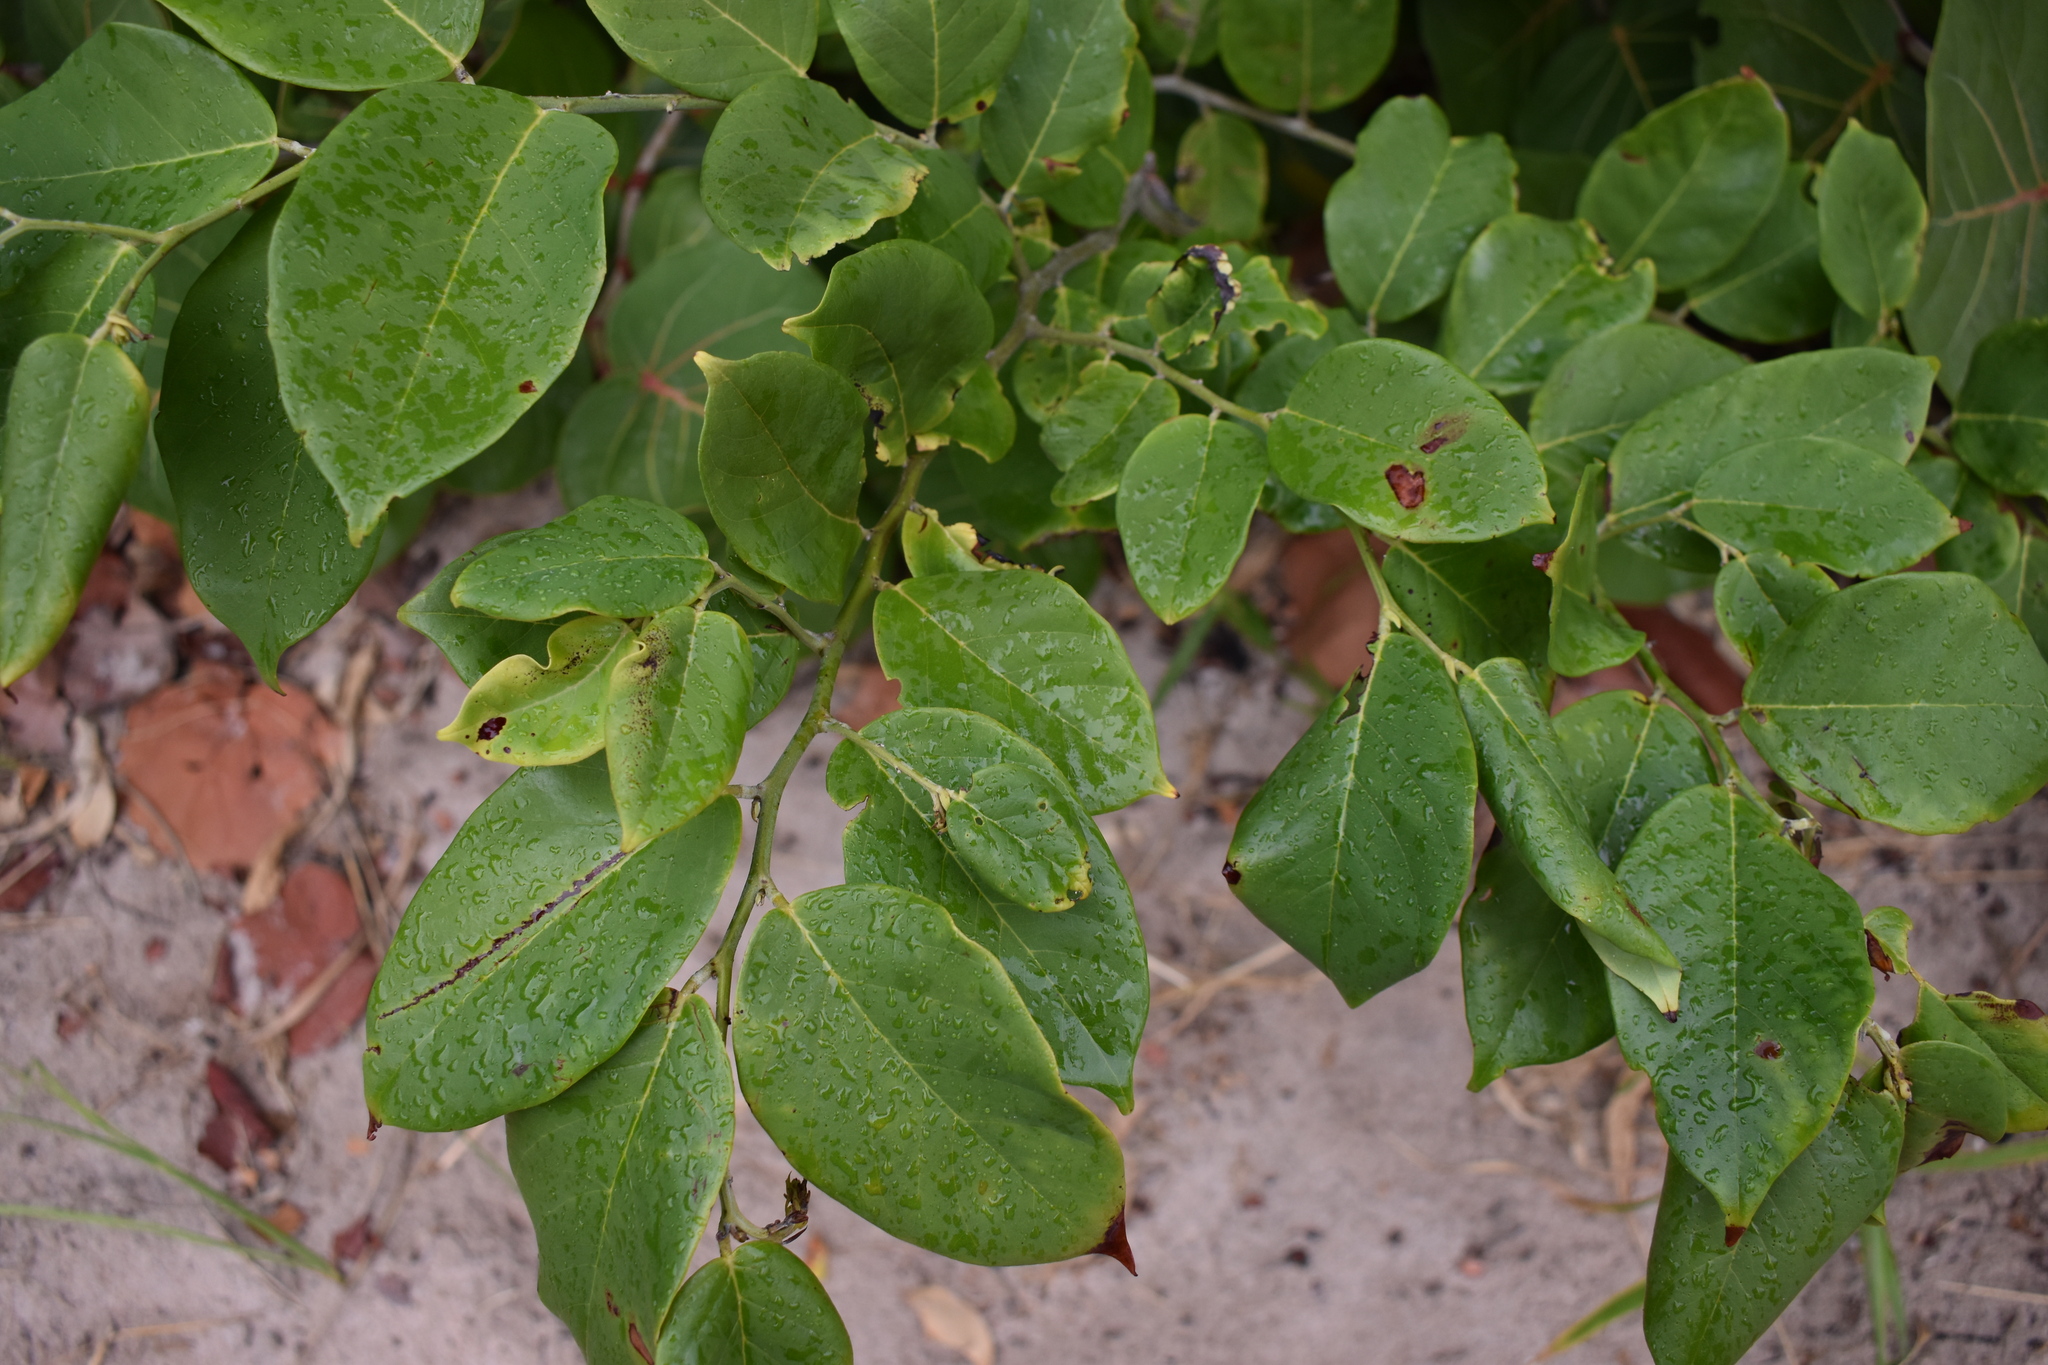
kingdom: Plantae
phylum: Tracheophyta
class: Magnoliopsida
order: Fabales
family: Fabaceae
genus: Dalbergia
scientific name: Dalbergia ecastaphyllum
